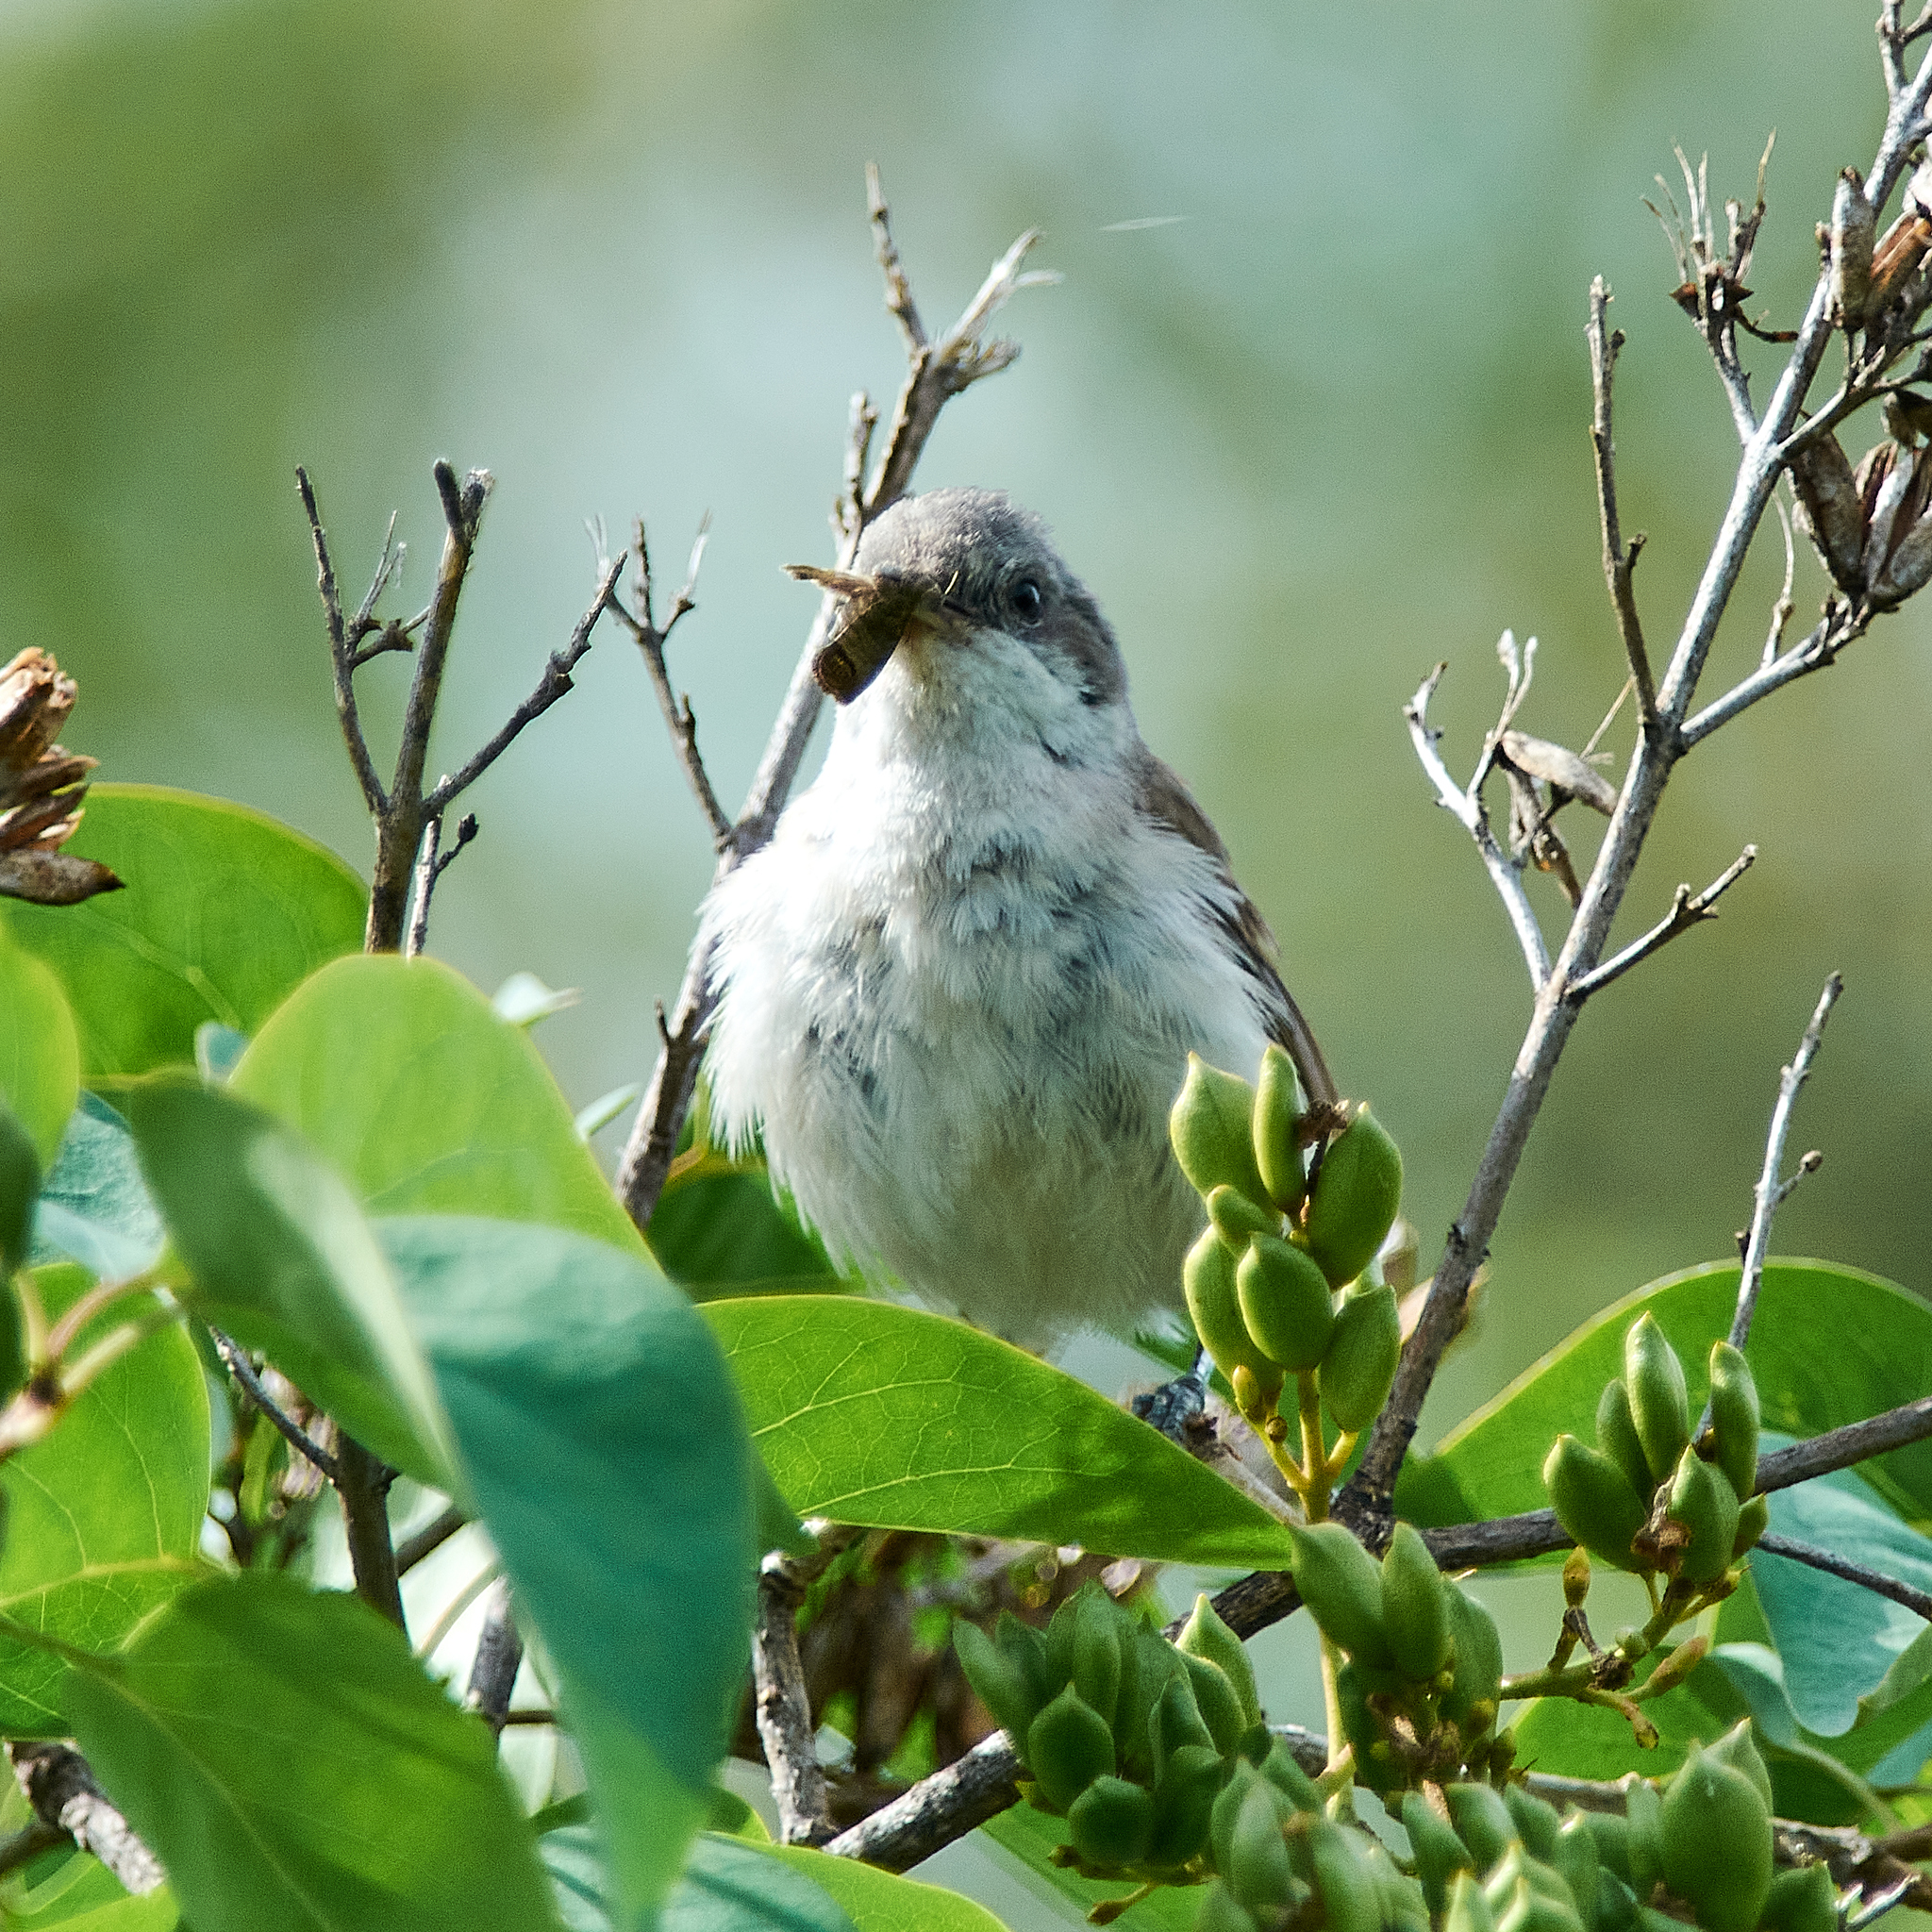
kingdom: Animalia
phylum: Chordata
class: Aves
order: Passeriformes
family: Sylviidae
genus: Sylvia
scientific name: Sylvia curruca
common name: Lesser whitethroat
